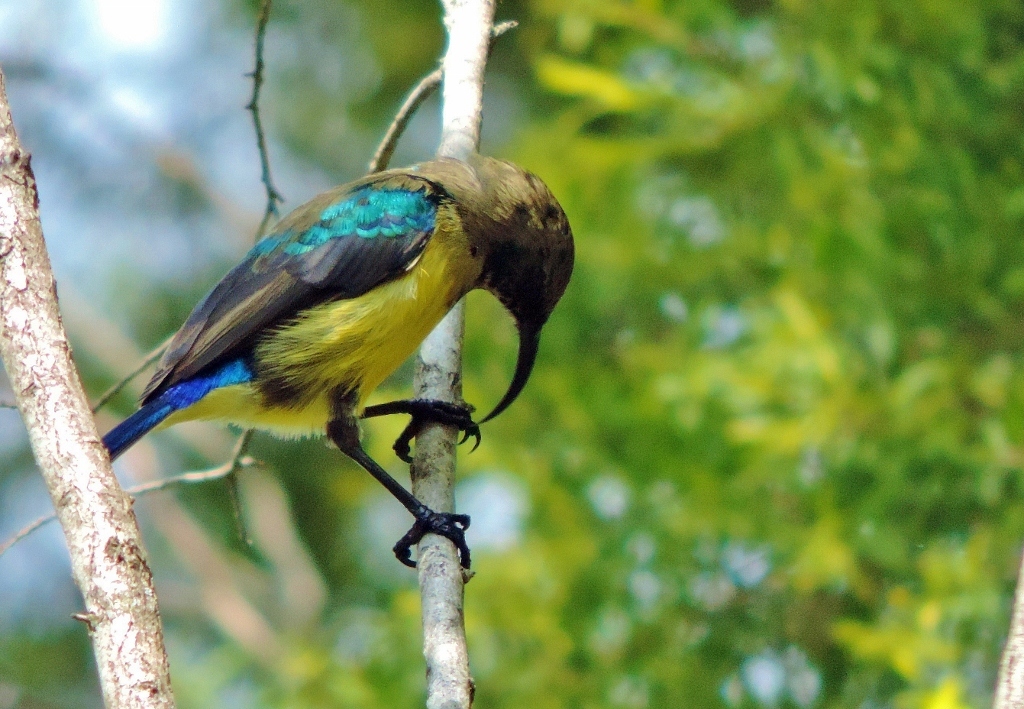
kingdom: Animalia
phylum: Chordata
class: Aves
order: Passeriformes
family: Nectariniidae
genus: Cinnyris
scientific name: Cinnyris venustus
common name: Variable sunbird
